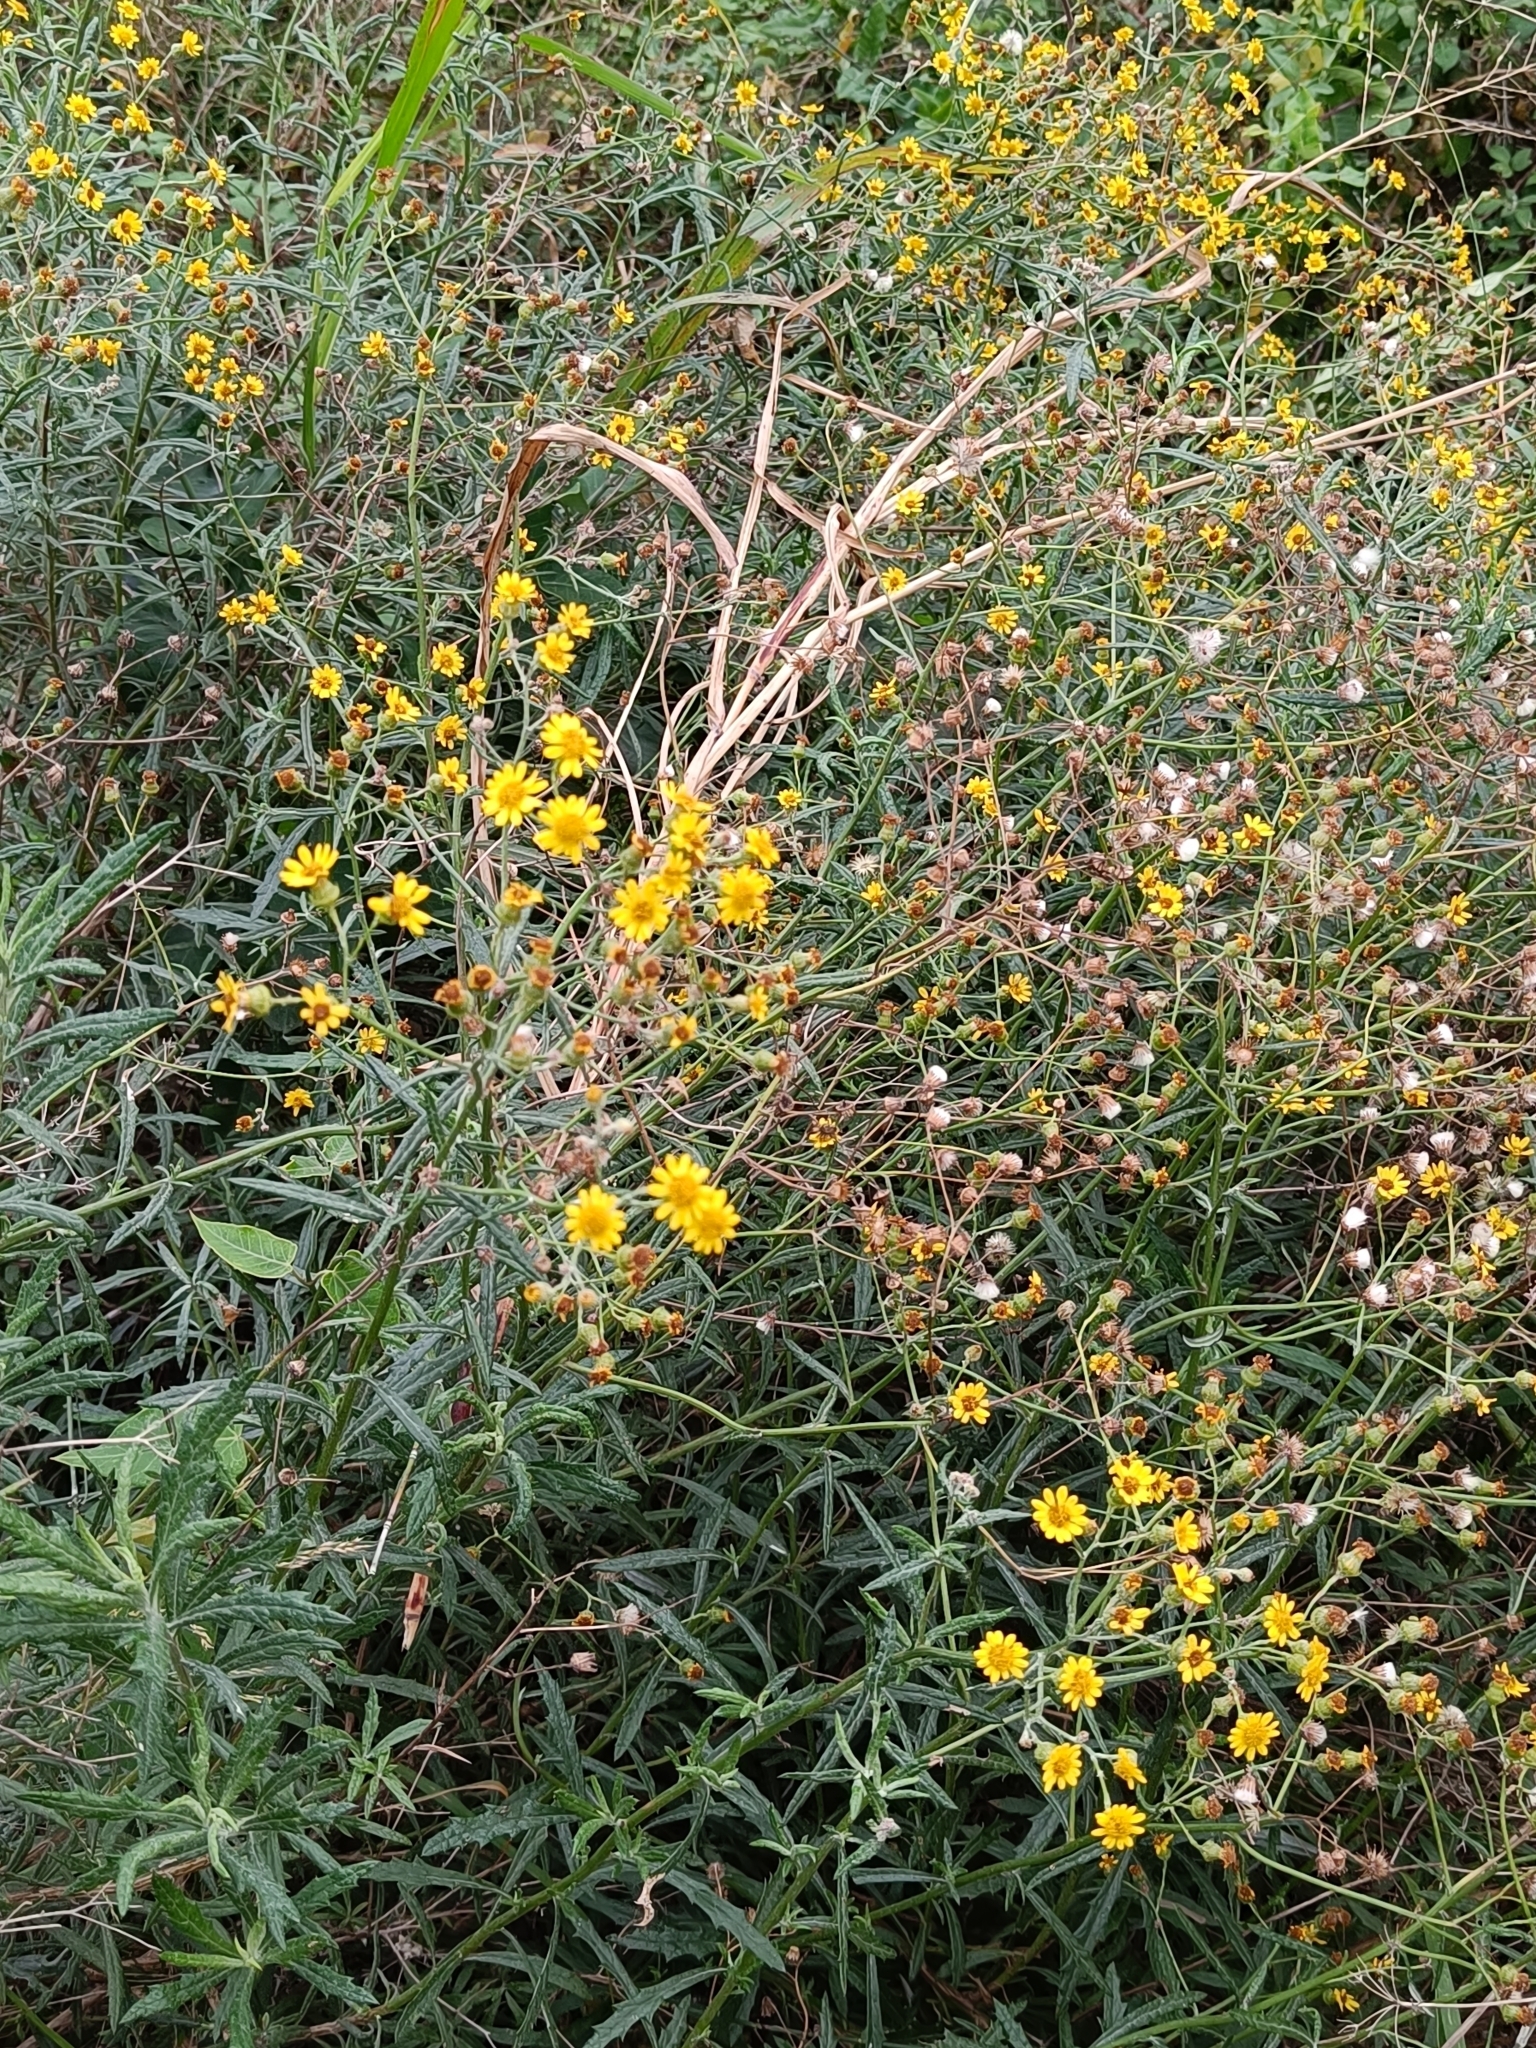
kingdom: Plantae
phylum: Tracheophyta
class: Magnoliopsida
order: Asterales
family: Asteraceae
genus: Senecio
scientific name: Senecio pterophorus
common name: Shoddy ragwort
